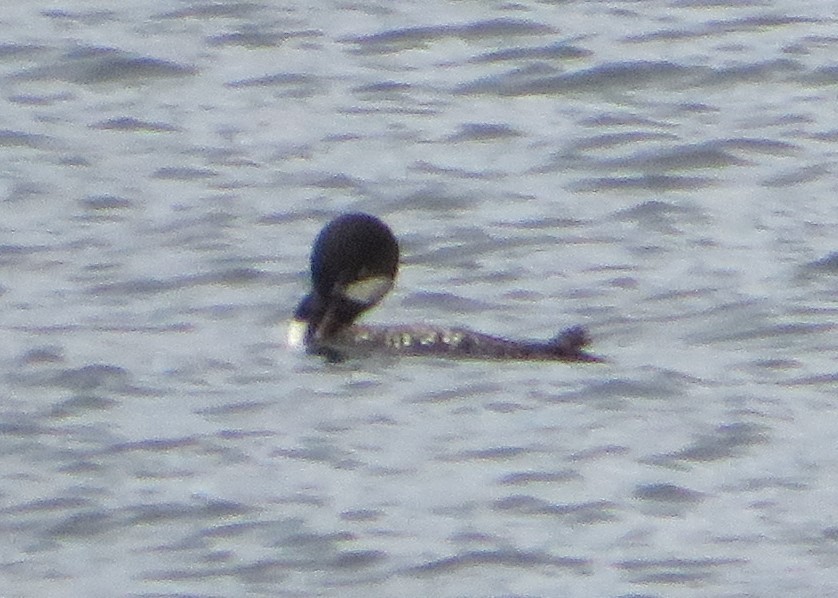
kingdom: Animalia
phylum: Chordata
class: Aves
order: Gaviiformes
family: Gaviidae
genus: Gavia
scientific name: Gavia immer
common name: Common loon
